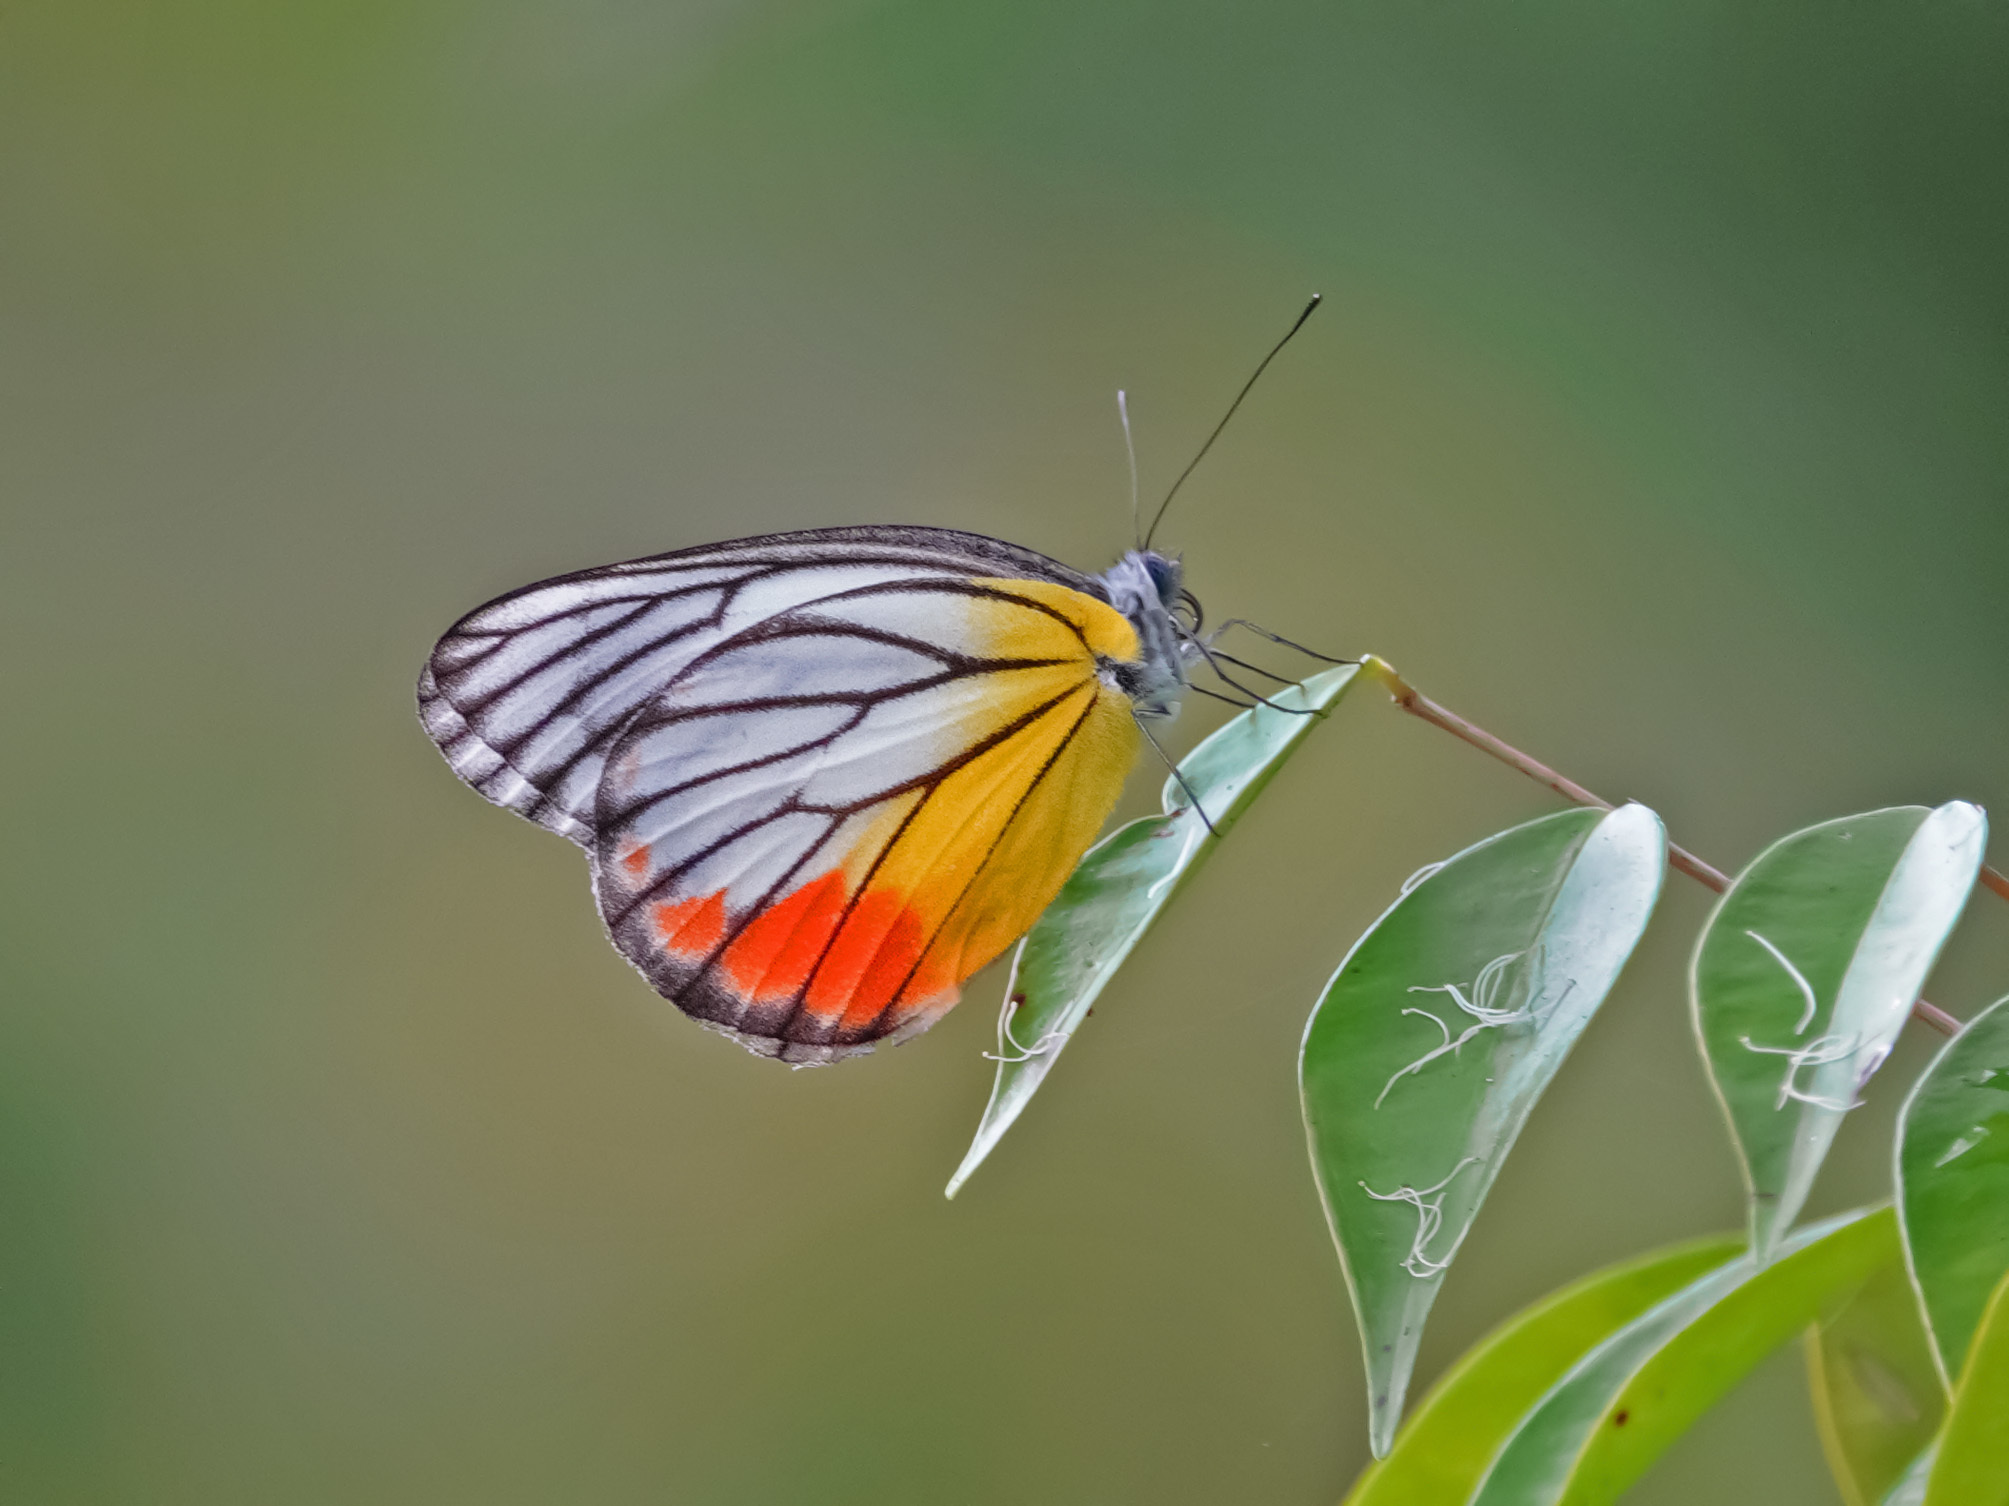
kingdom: Animalia
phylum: Arthropoda
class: Insecta
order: Lepidoptera
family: Pieridae
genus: Delias
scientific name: Delias hyparete
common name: Painted jezebel
